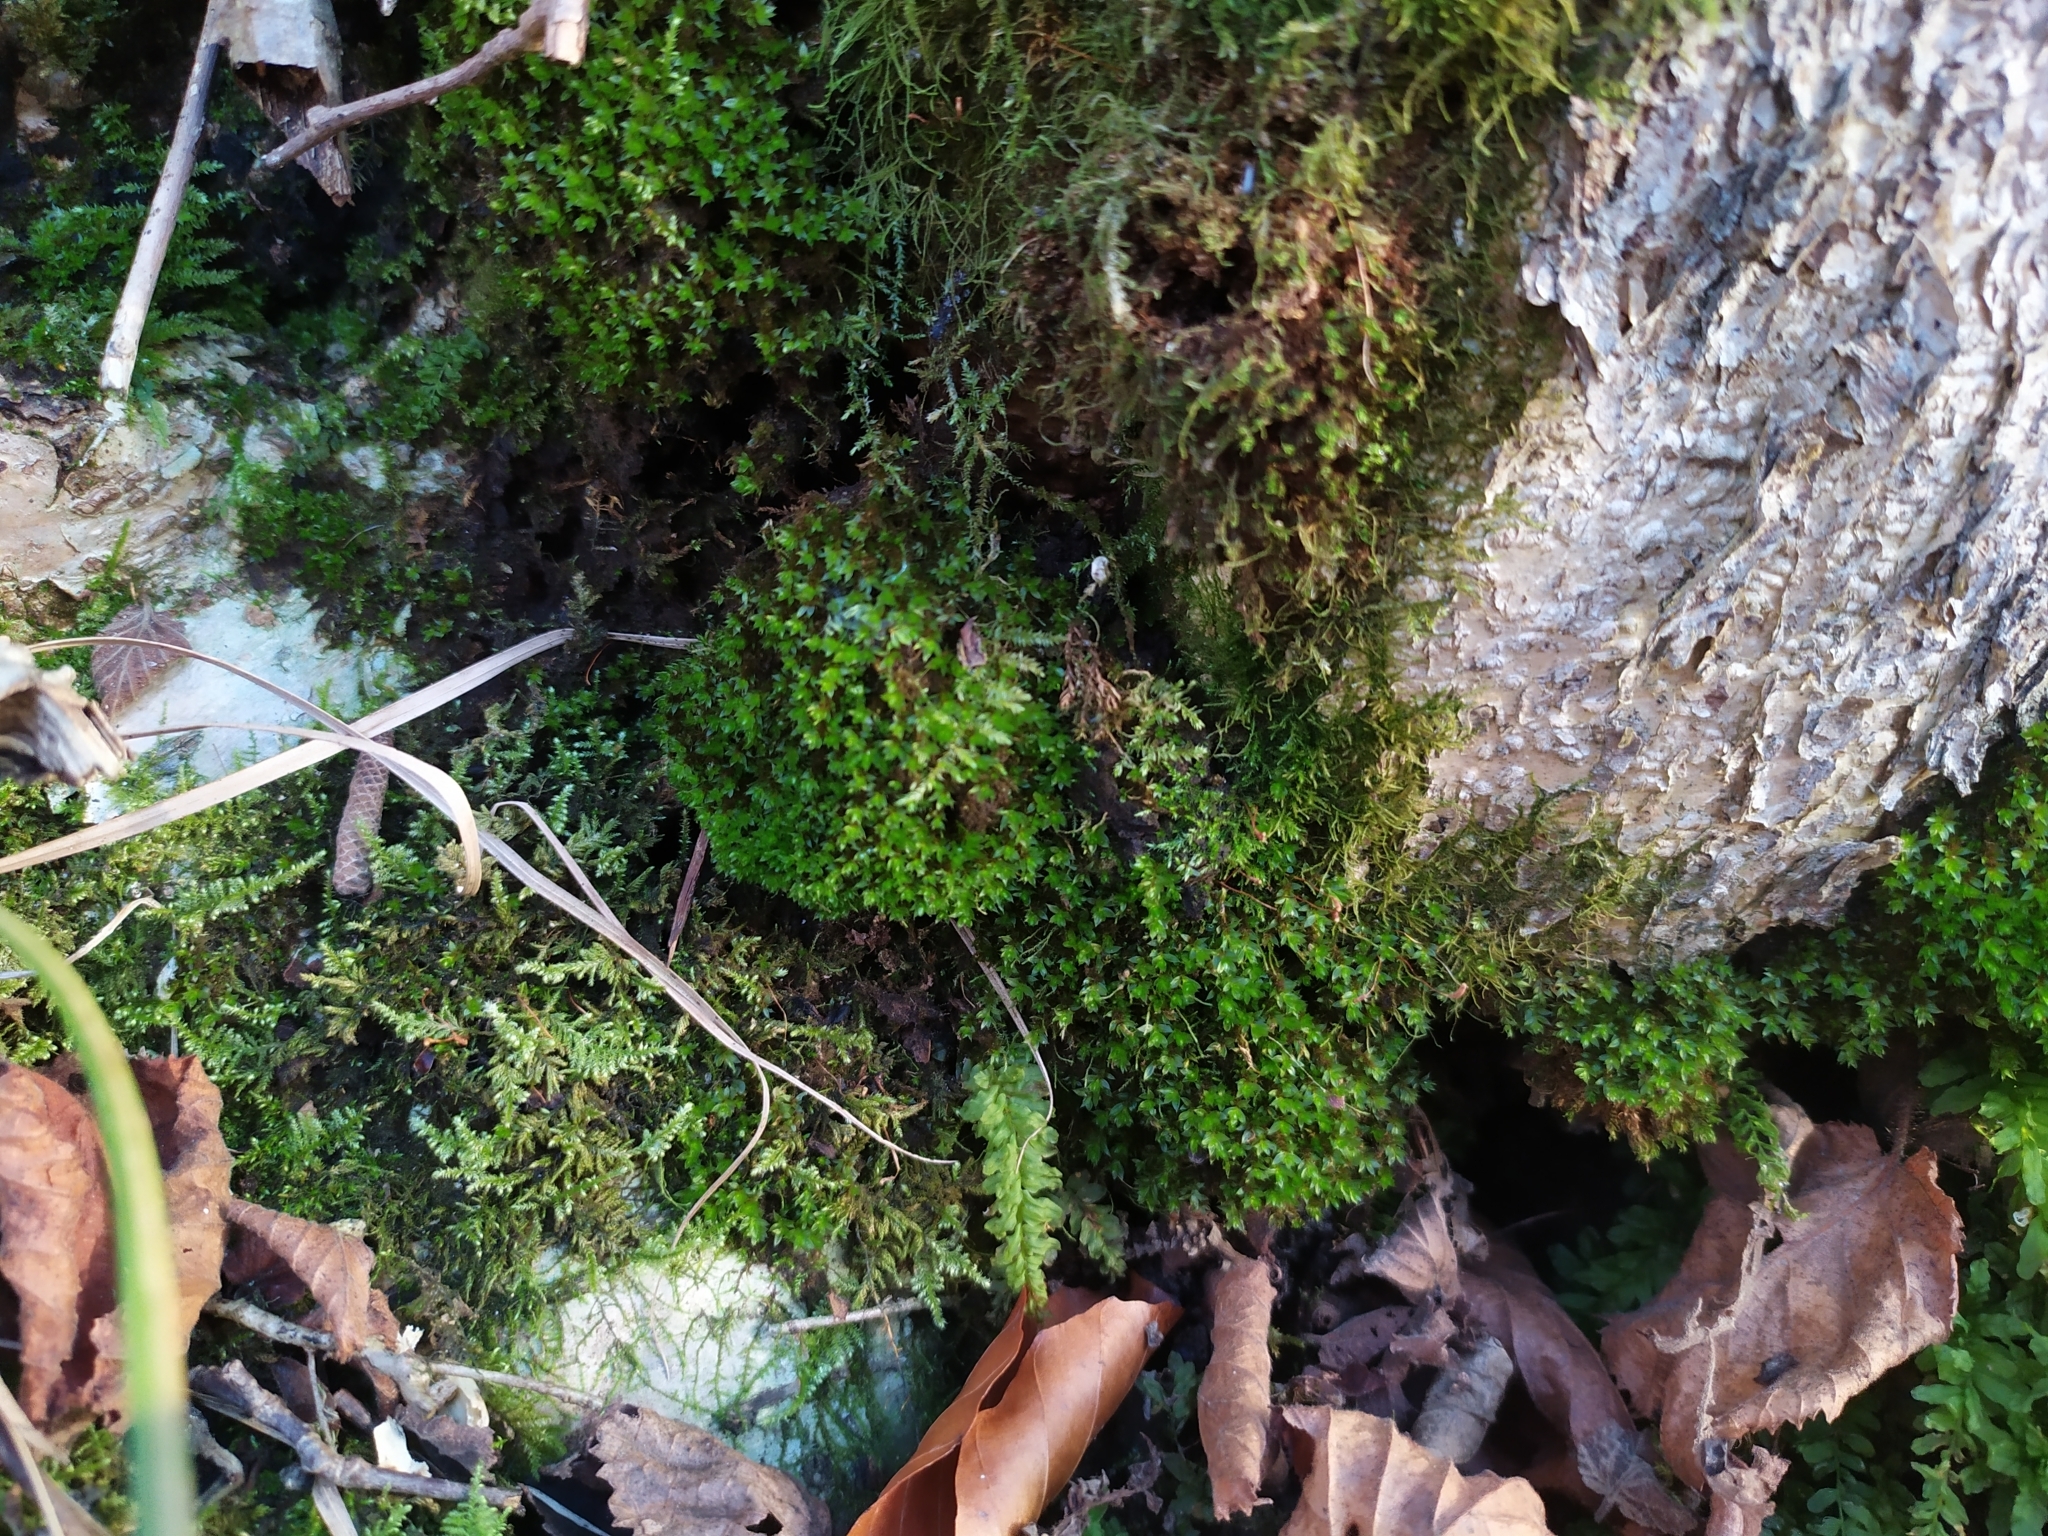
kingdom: Plantae
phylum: Bryophyta
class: Bryopsida
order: Bryales
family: Bryaceae
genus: Rosulabryum
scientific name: Rosulabryum moravicum
